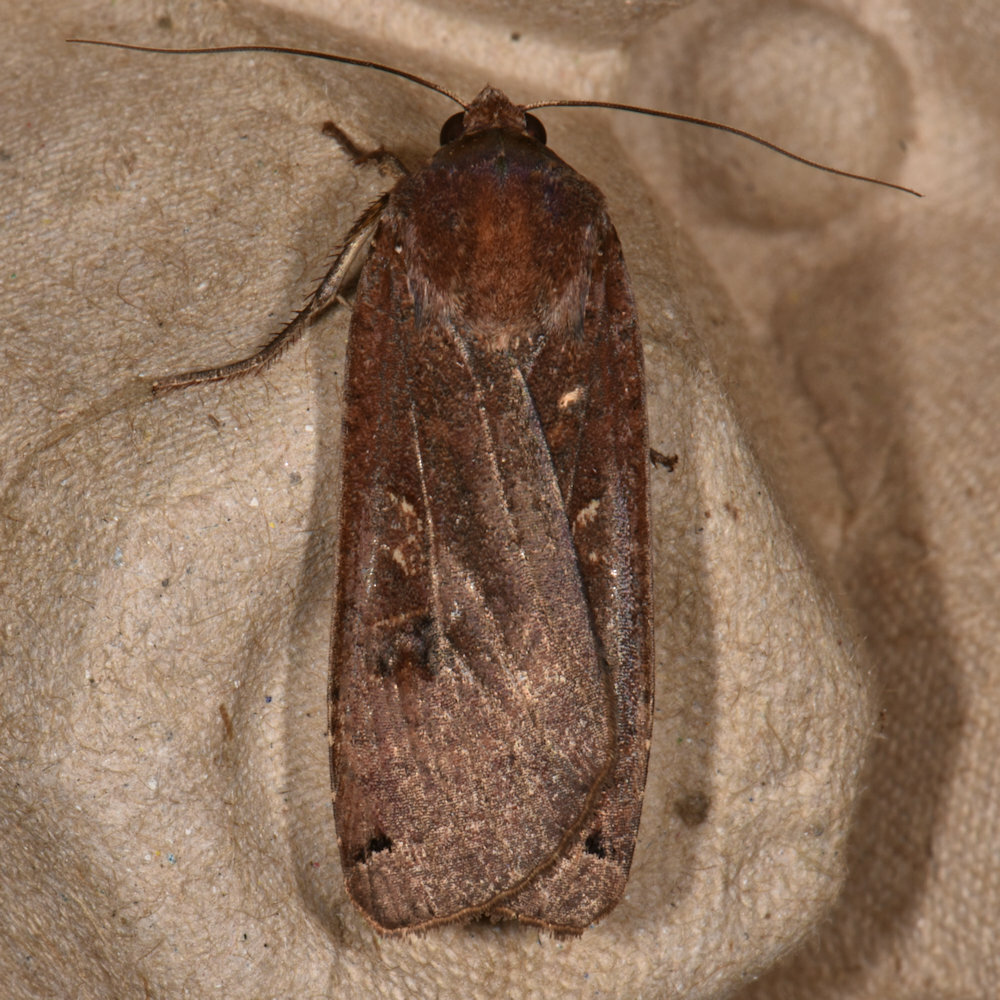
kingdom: Animalia
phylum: Arthropoda
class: Insecta
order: Lepidoptera
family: Noctuidae
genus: Noctua
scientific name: Noctua pronuba
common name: Large yellow underwing
